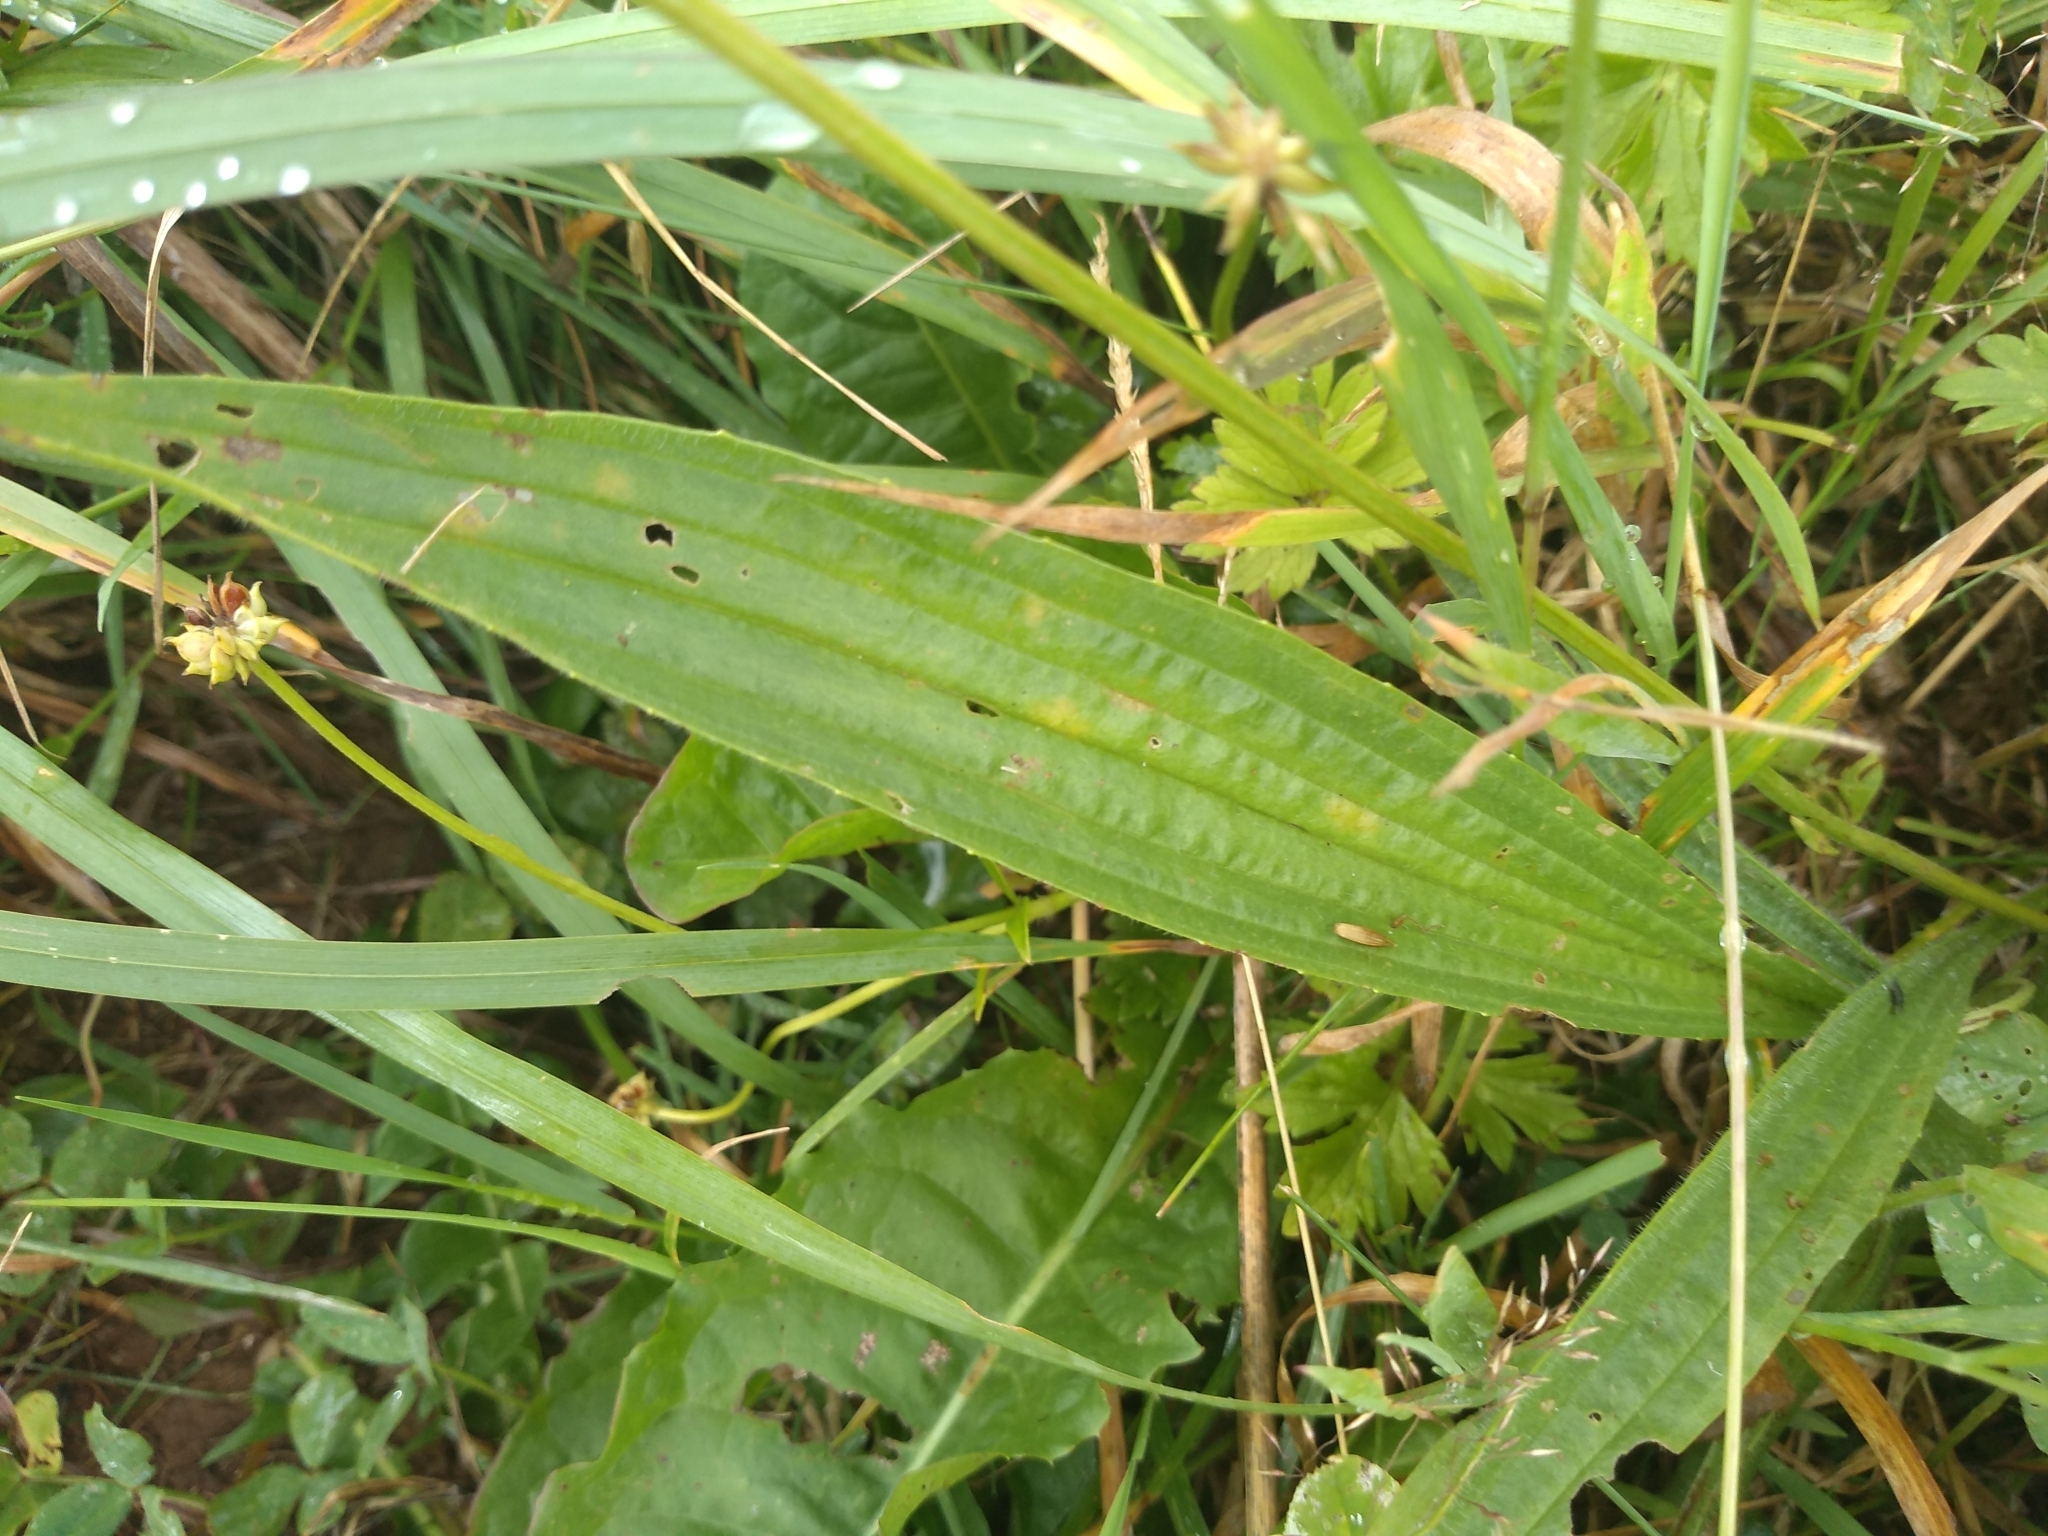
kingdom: Plantae
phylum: Tracheophyta
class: Magnoliopsida
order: Lamiales
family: Plantaginaceae
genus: Plantago
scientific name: Plantago lanceolata
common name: Ribwort plantain
